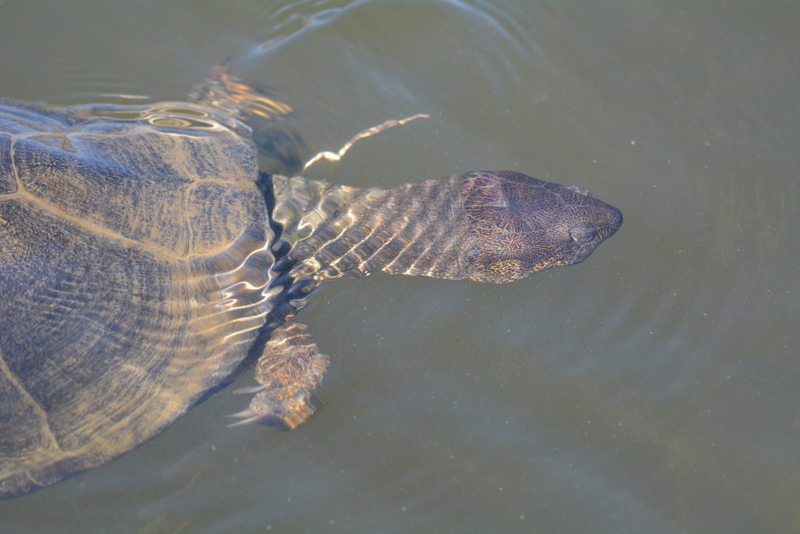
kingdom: Animalia
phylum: Chordata
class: Testudines
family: Pelomedusidae
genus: Pelusios
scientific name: Pelusios sinuatus
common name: Serrated hinged terrapin
